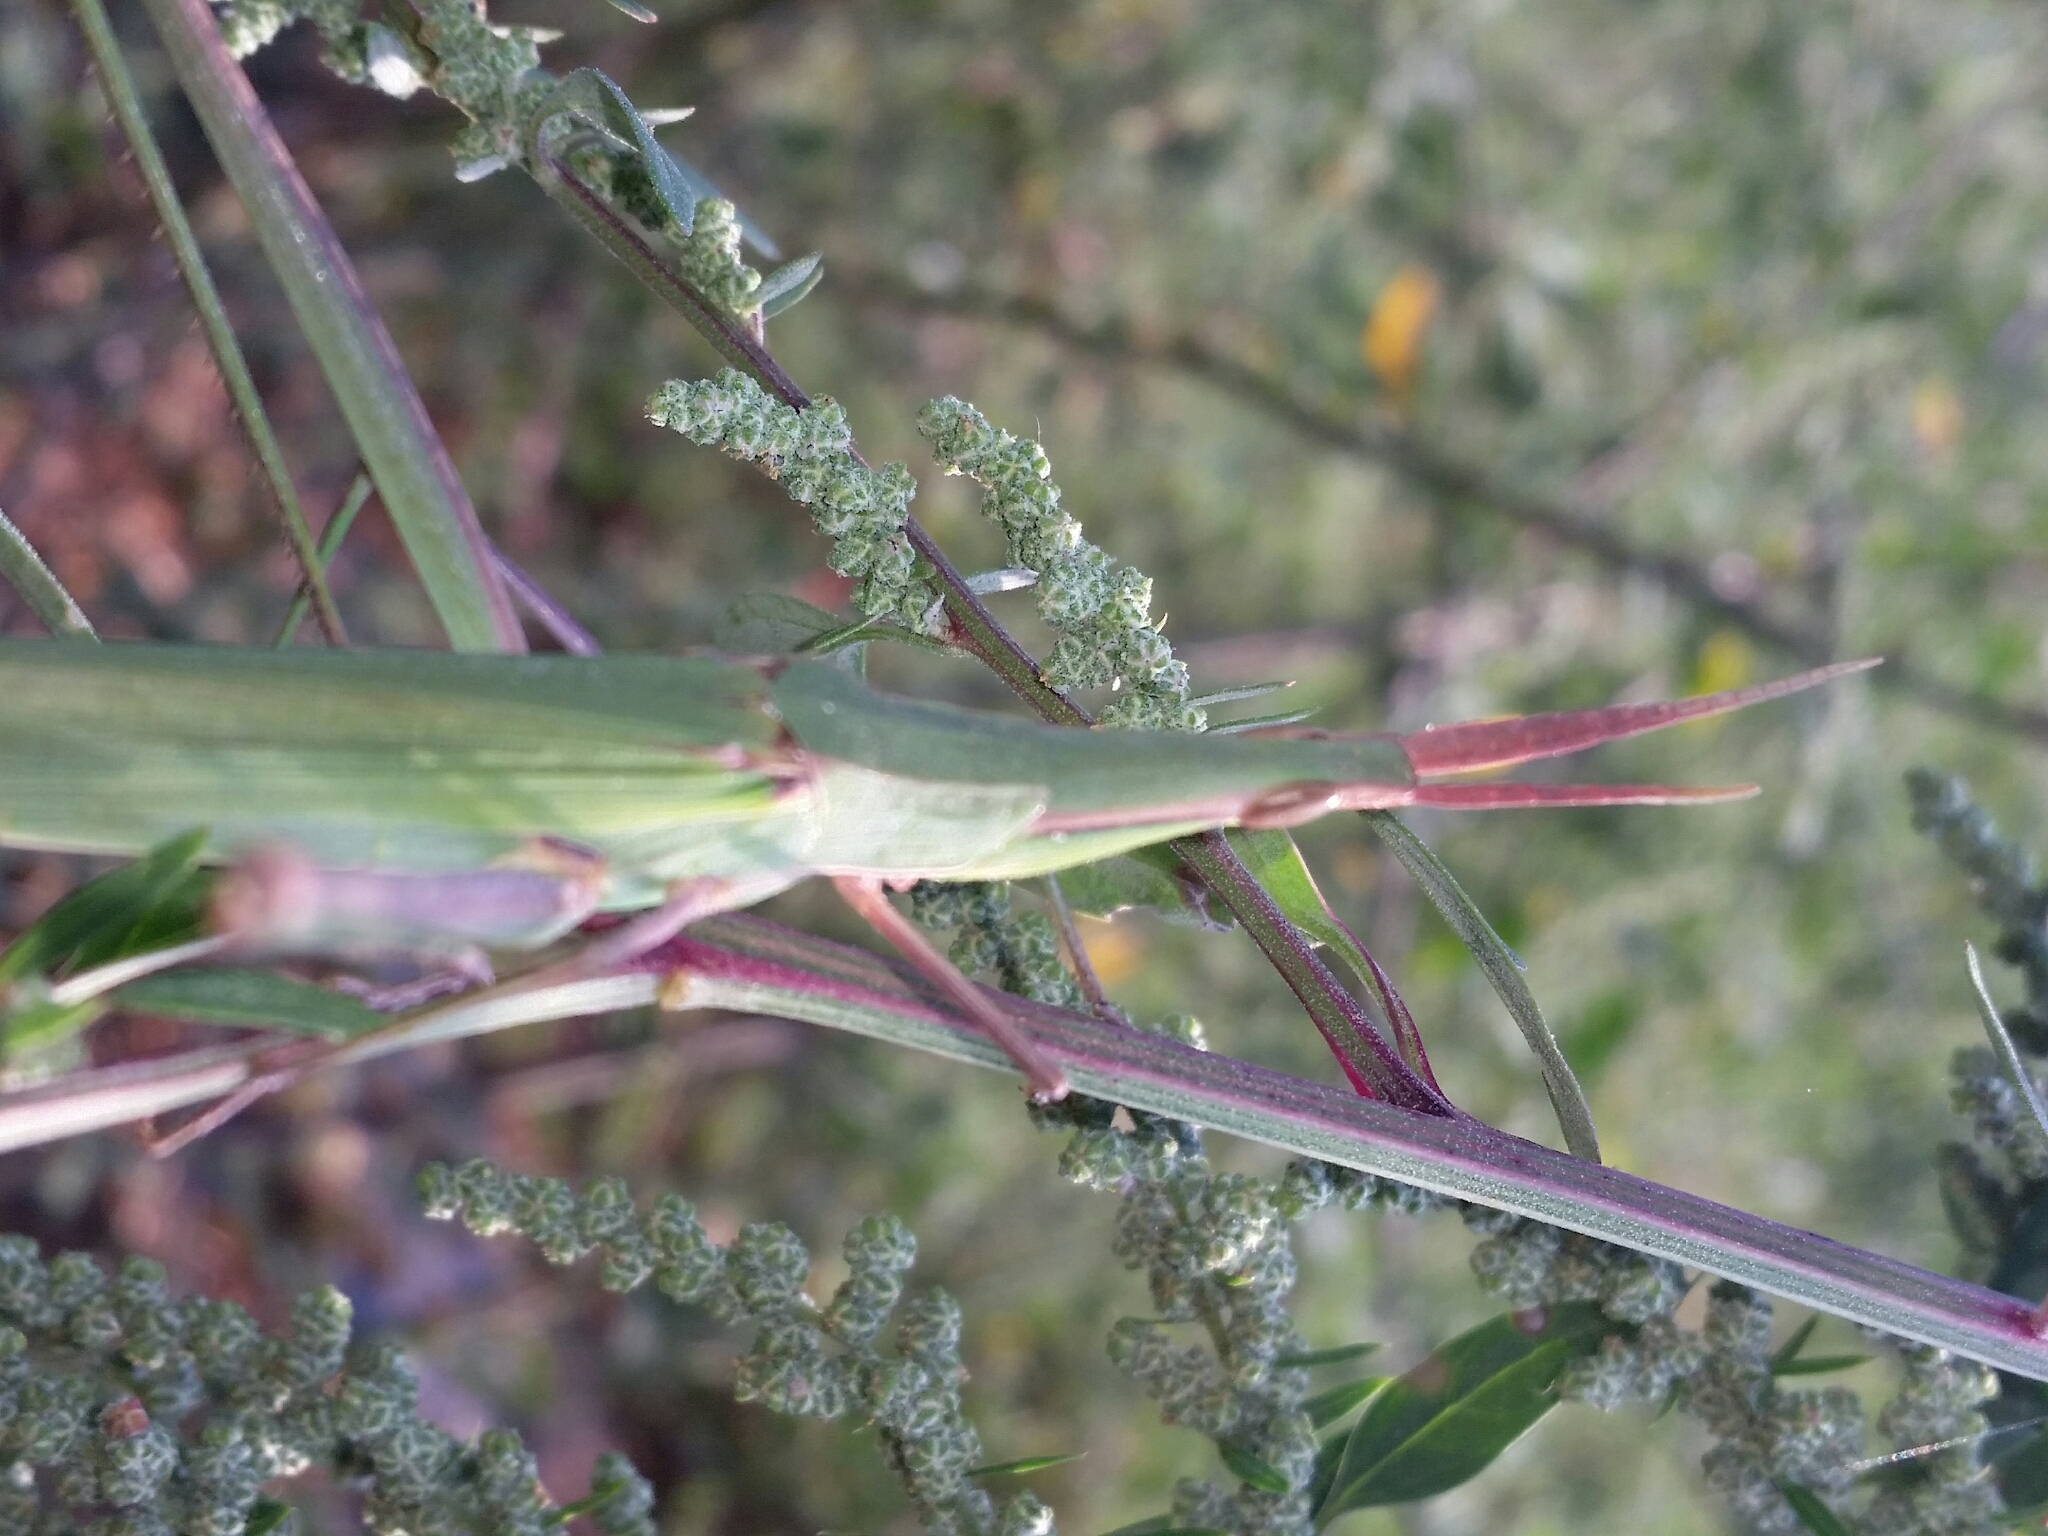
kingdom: Animalia
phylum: Arthropoda
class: Insecta
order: Orthoptera
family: Acrididae
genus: Acrida
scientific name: Acrida ungarica
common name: Common cone-headed grasshopper
